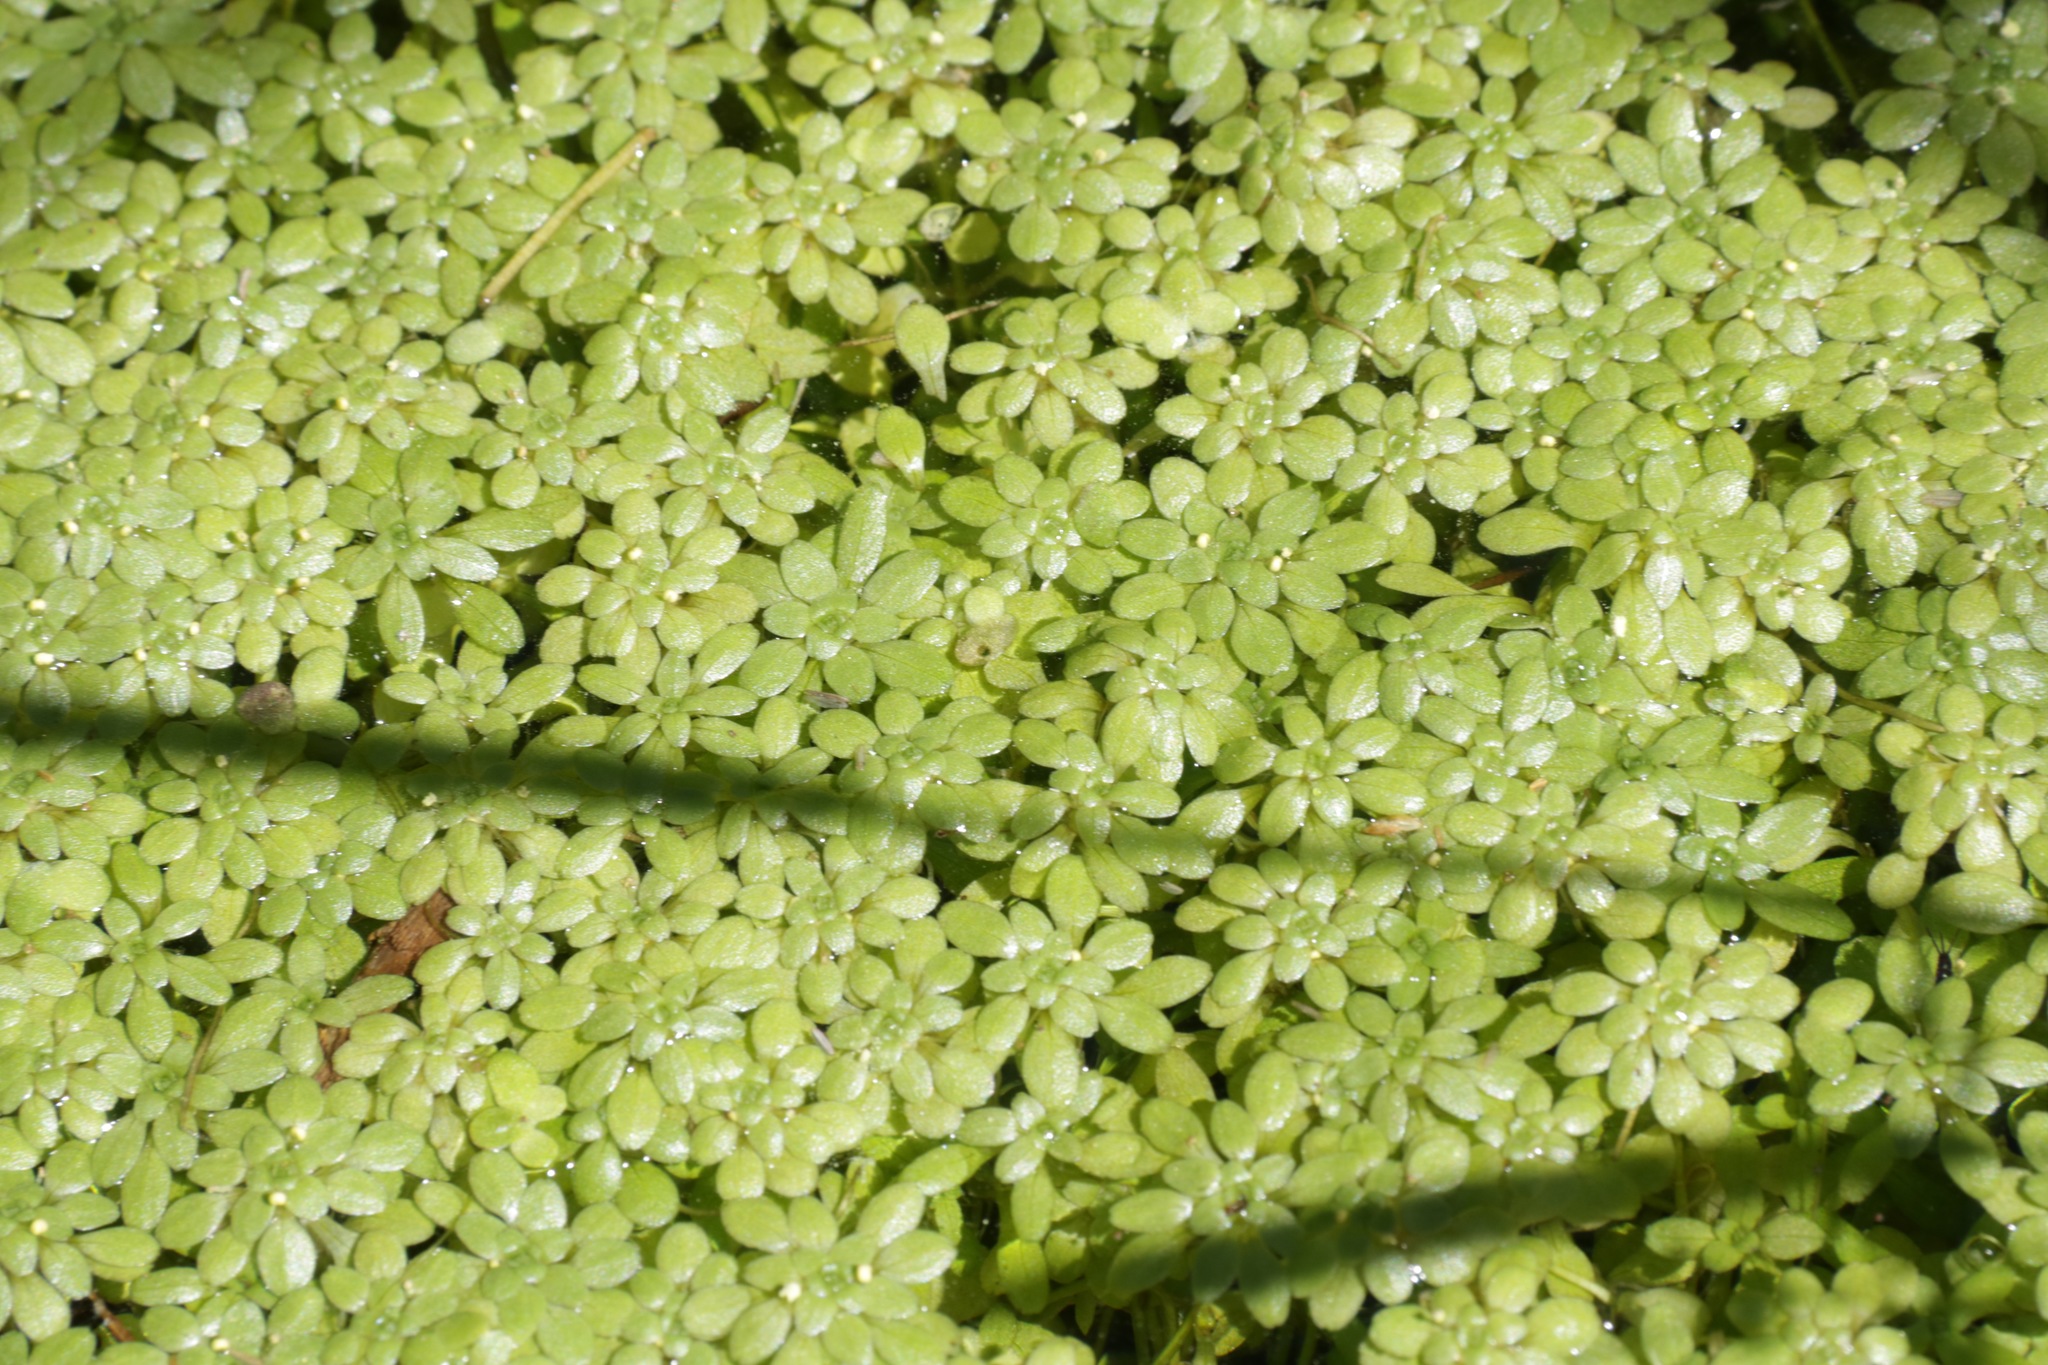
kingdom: Plantae
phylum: Tracheophyta
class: Magnoliopsida
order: Lamiales
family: Plantaginaceae
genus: Callitriche
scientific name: Callitriche
